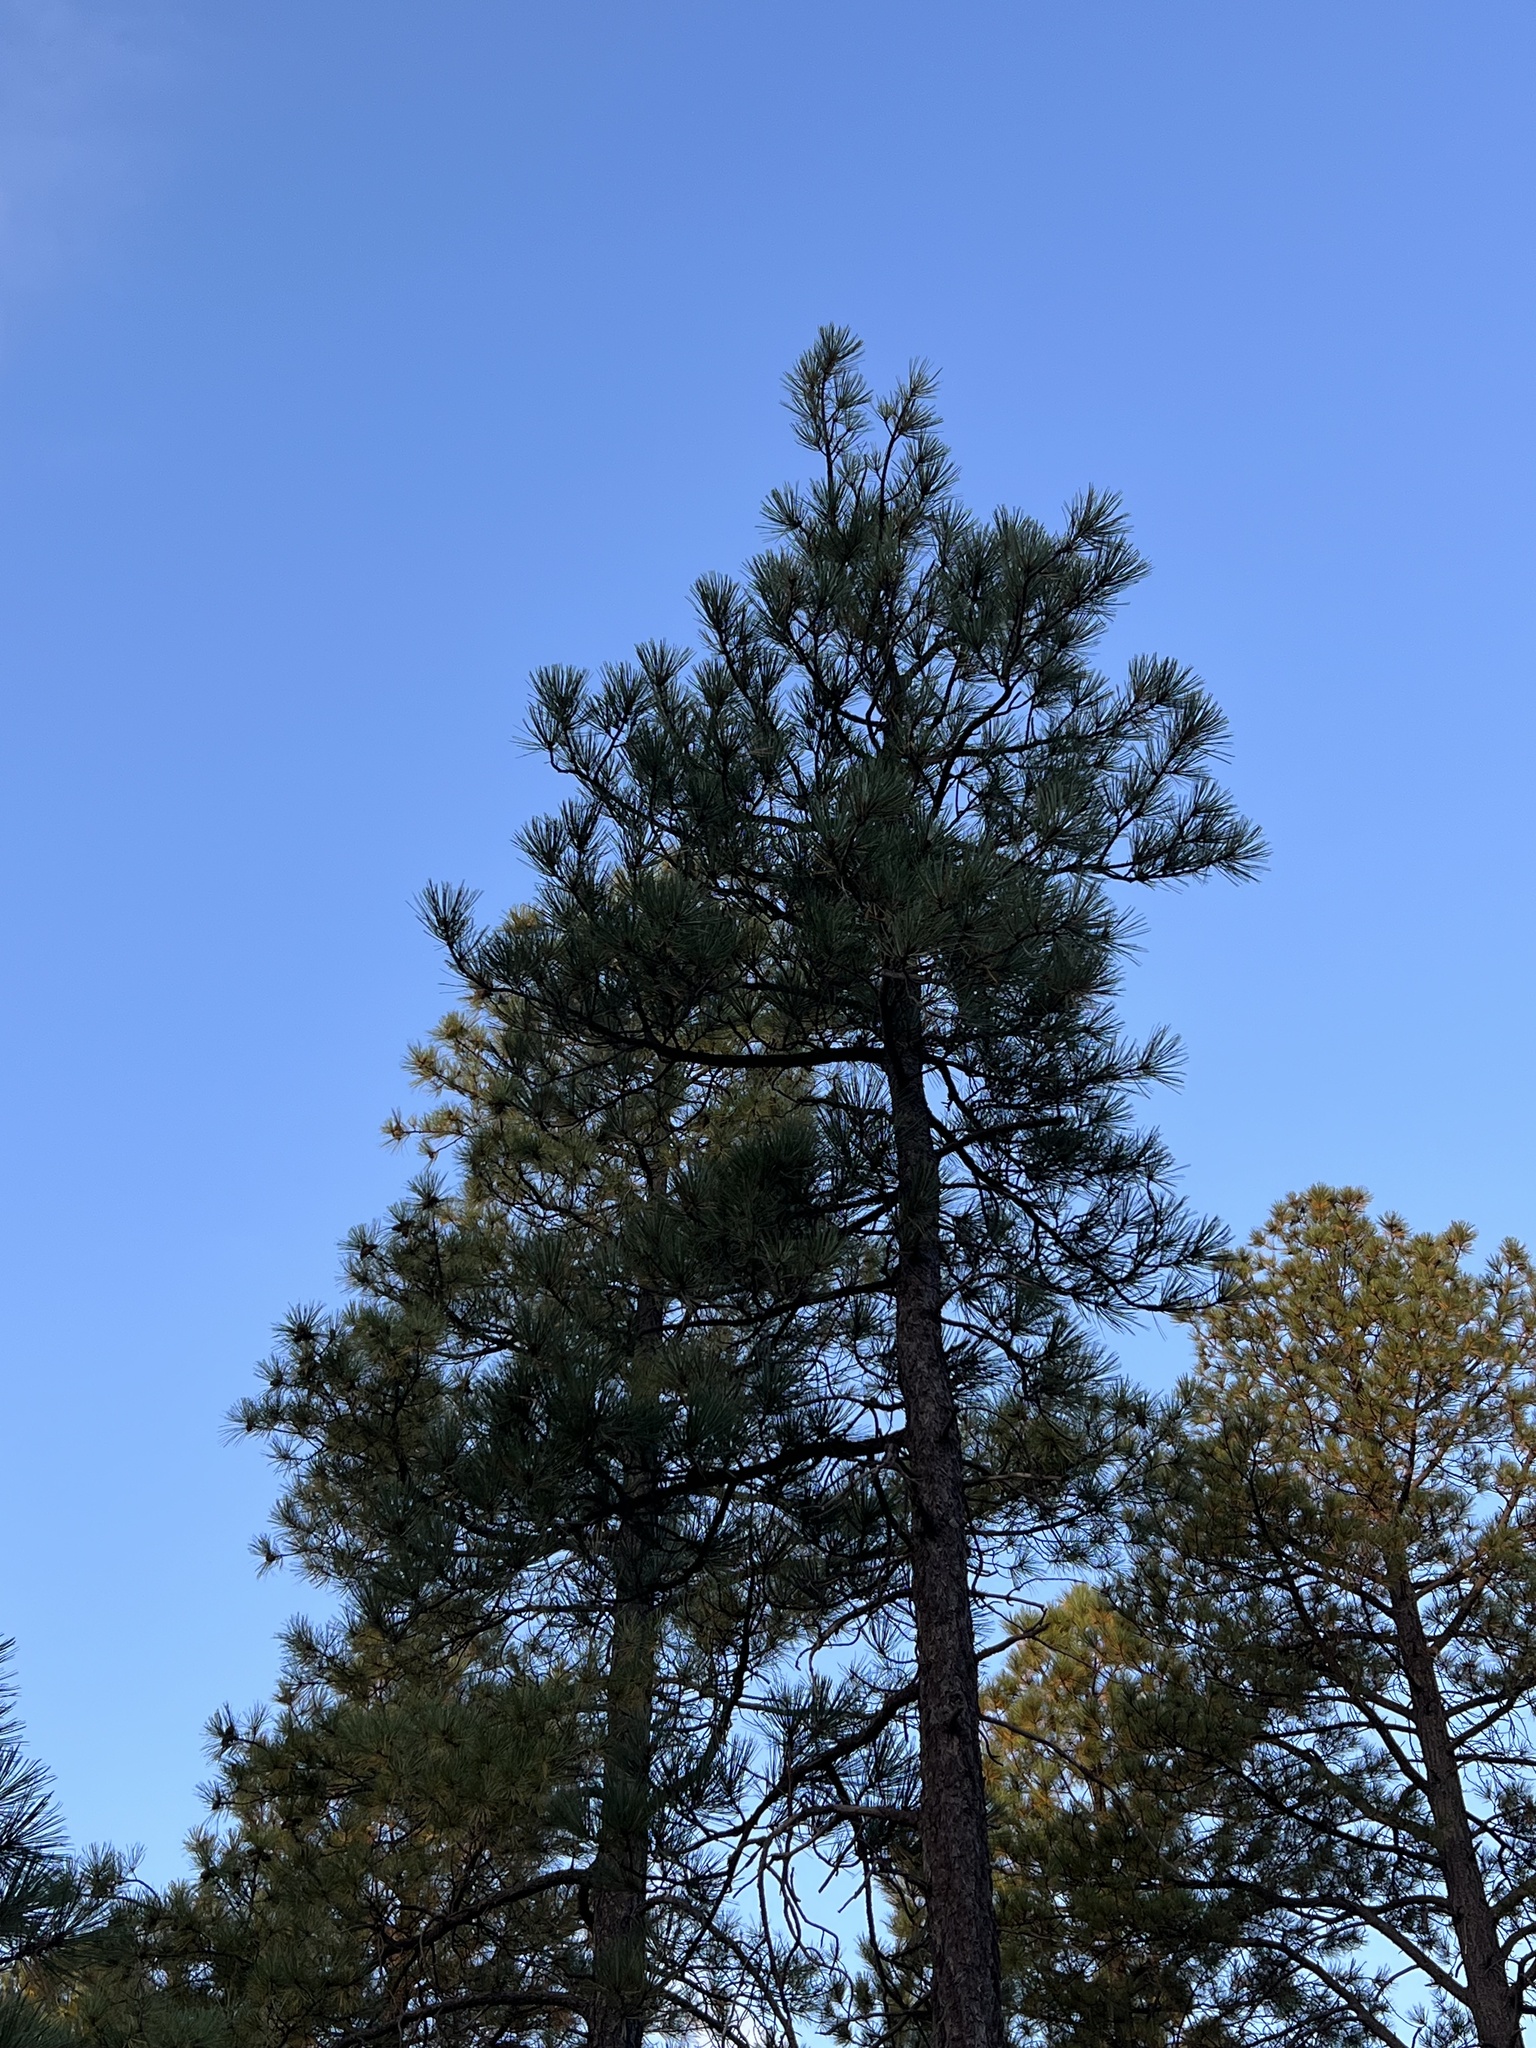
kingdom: Plantae
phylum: Tracheophyta
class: Pinopsida
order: Pinales
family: Pinaceae
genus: Pinus
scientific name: Pinus ponderosa
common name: Western yellow-pine
